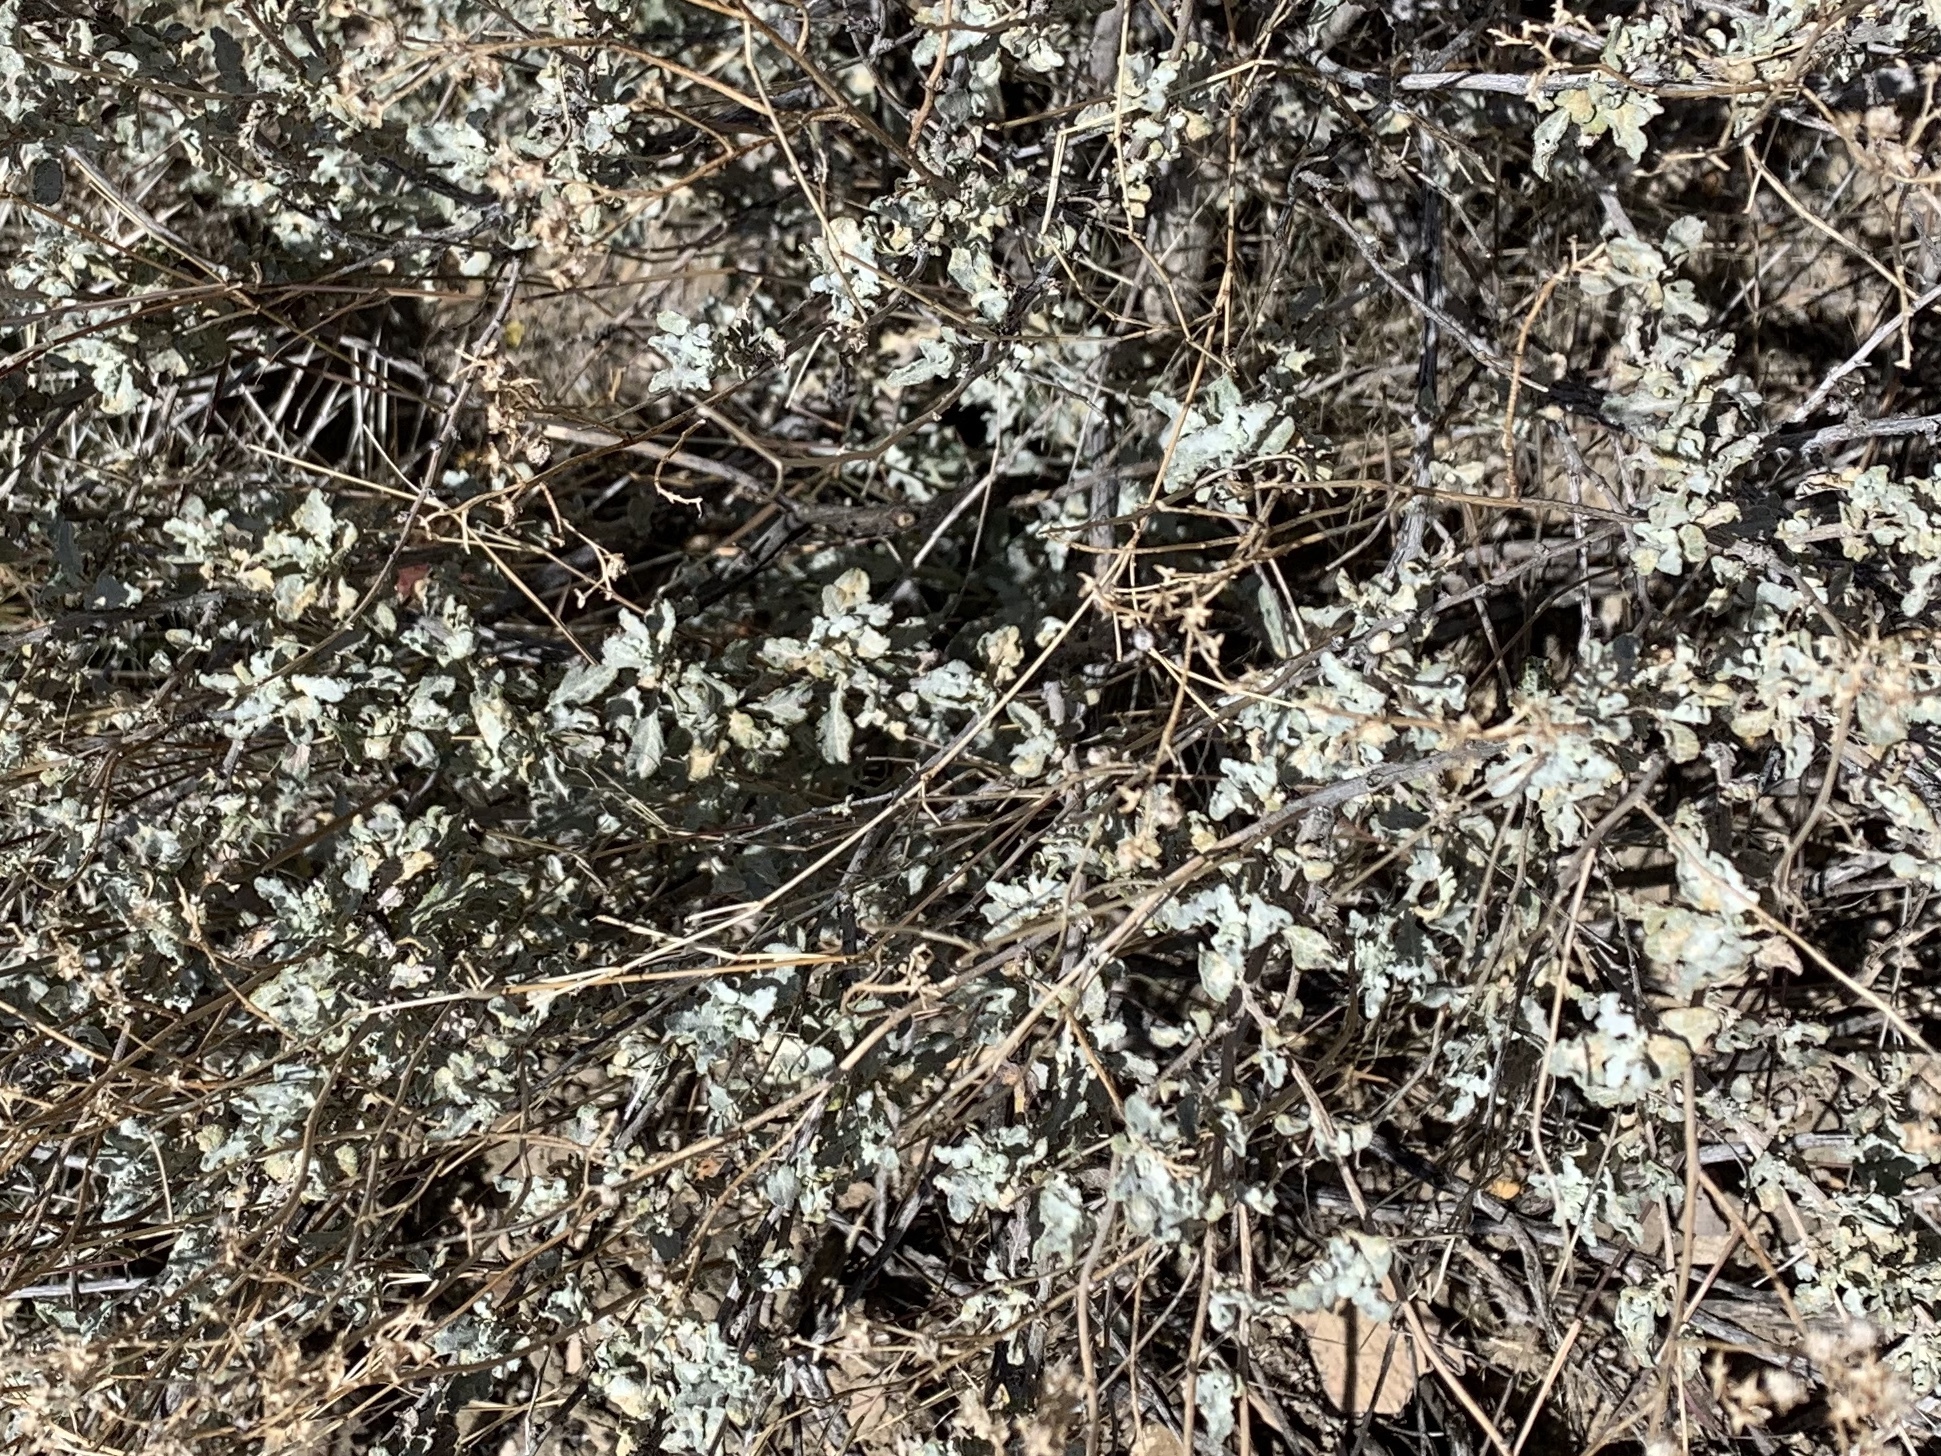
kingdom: Plantae
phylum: Tracheophyta
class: Magnoliopsida
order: Asterales
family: Asteraceae
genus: Parthenium
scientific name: Parthenium incanum
